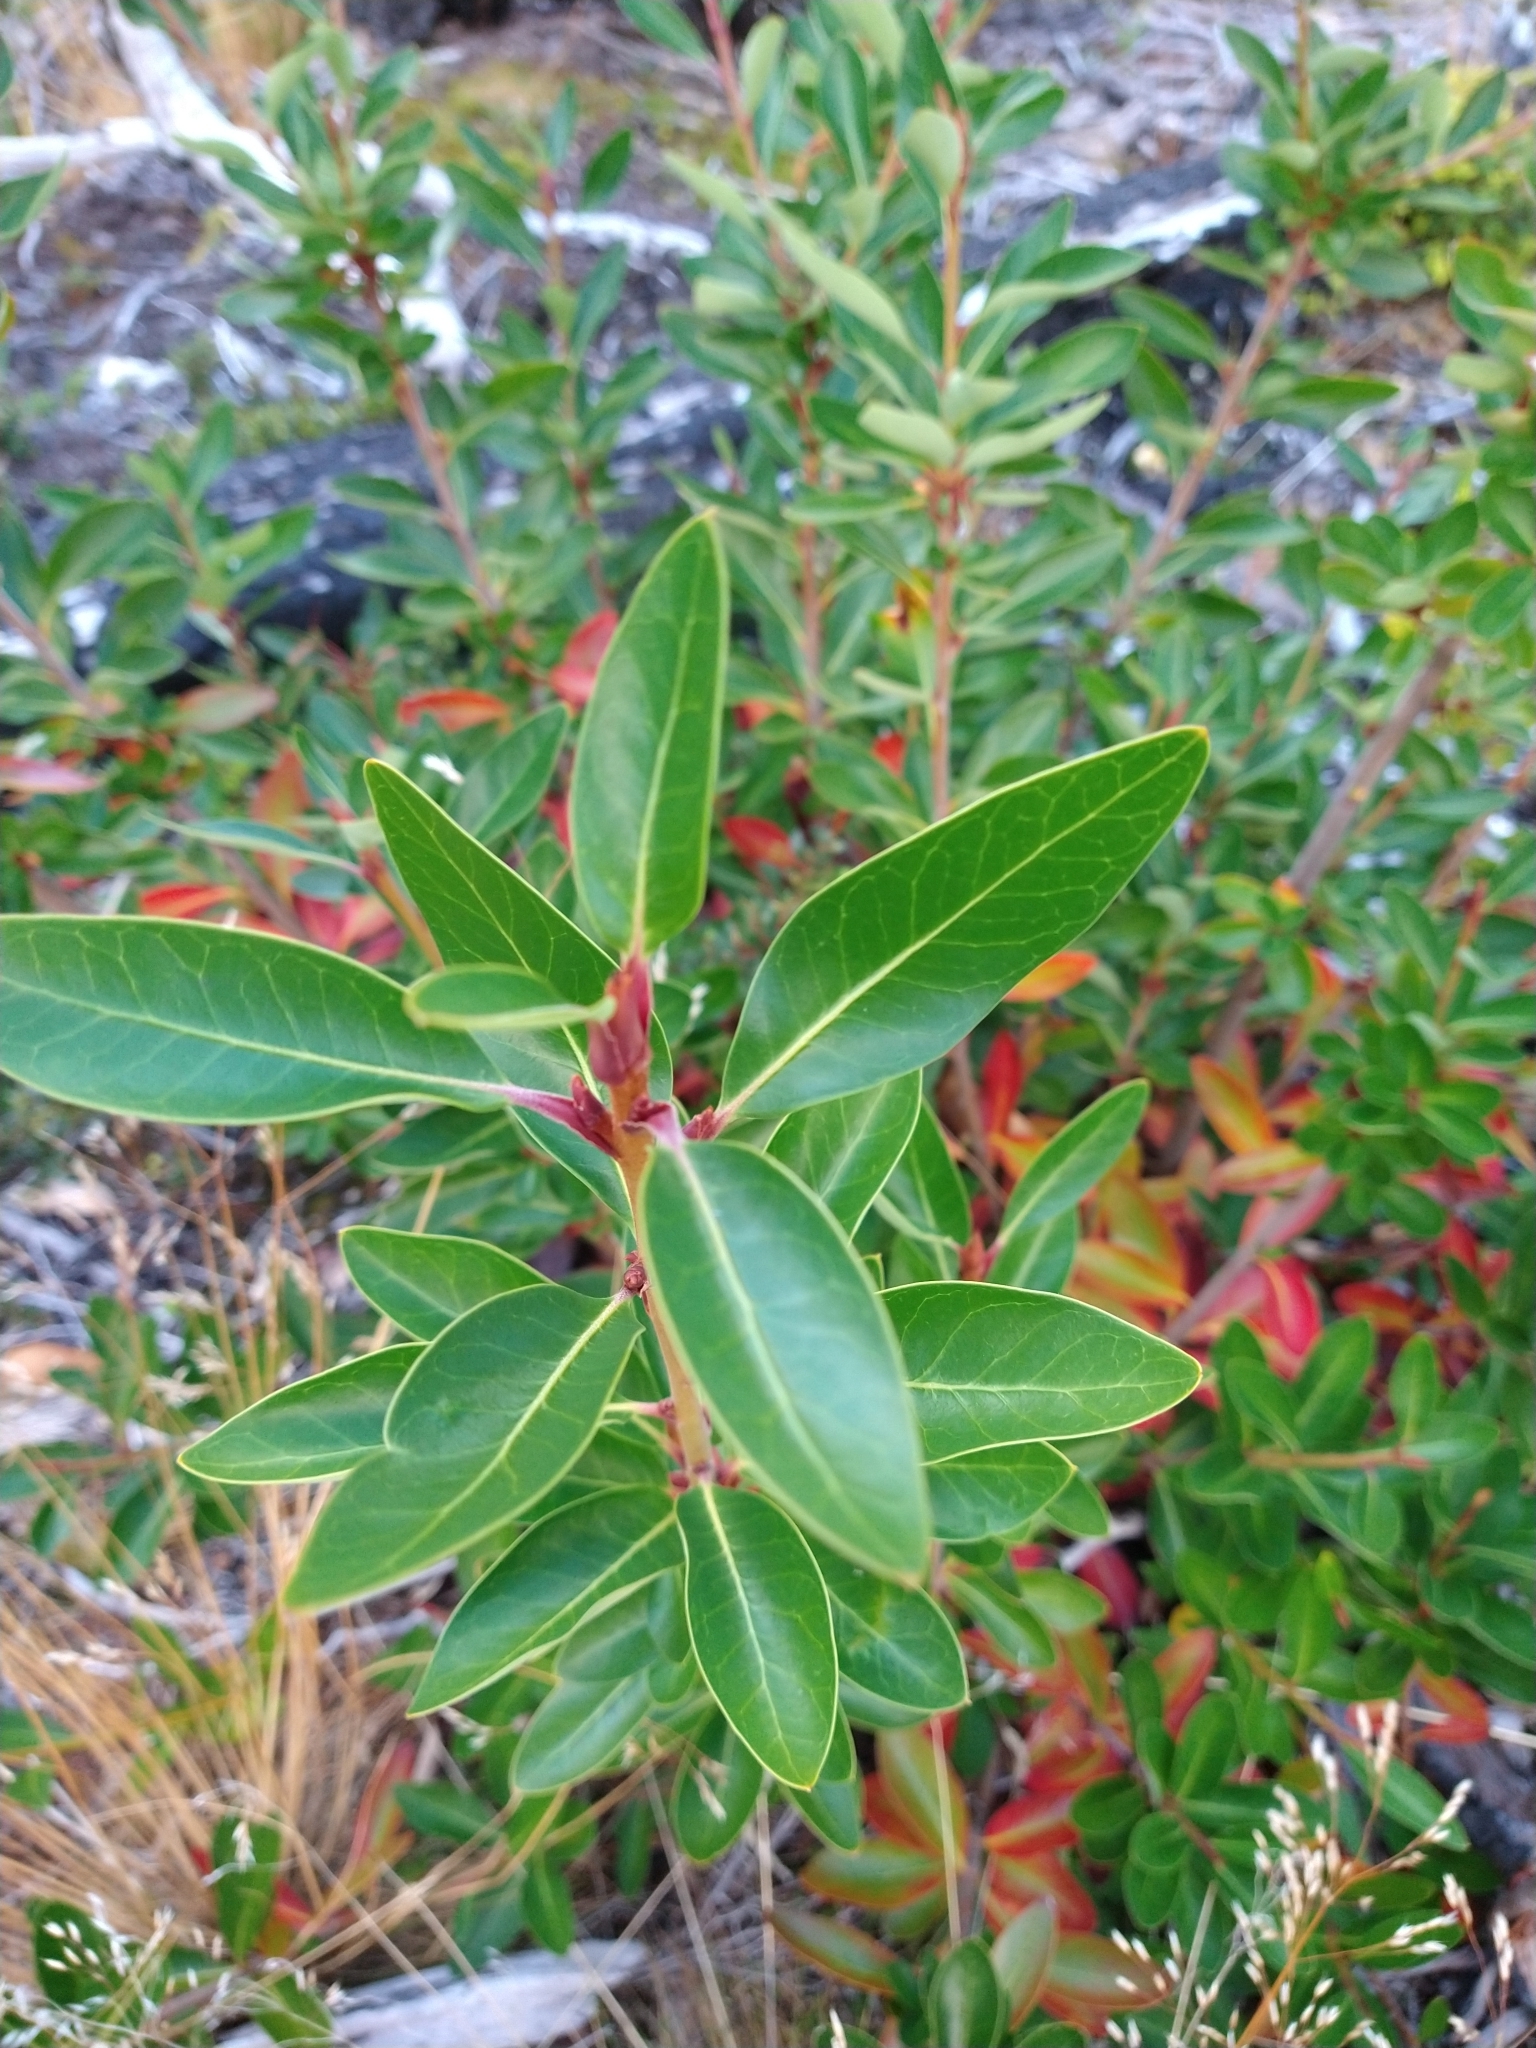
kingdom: Plantae
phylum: Tracheophyta
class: Magnoliopsida
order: Canellales
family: Winteraceae
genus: Drimys
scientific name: Drimys winteri
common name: Winter's-bark
